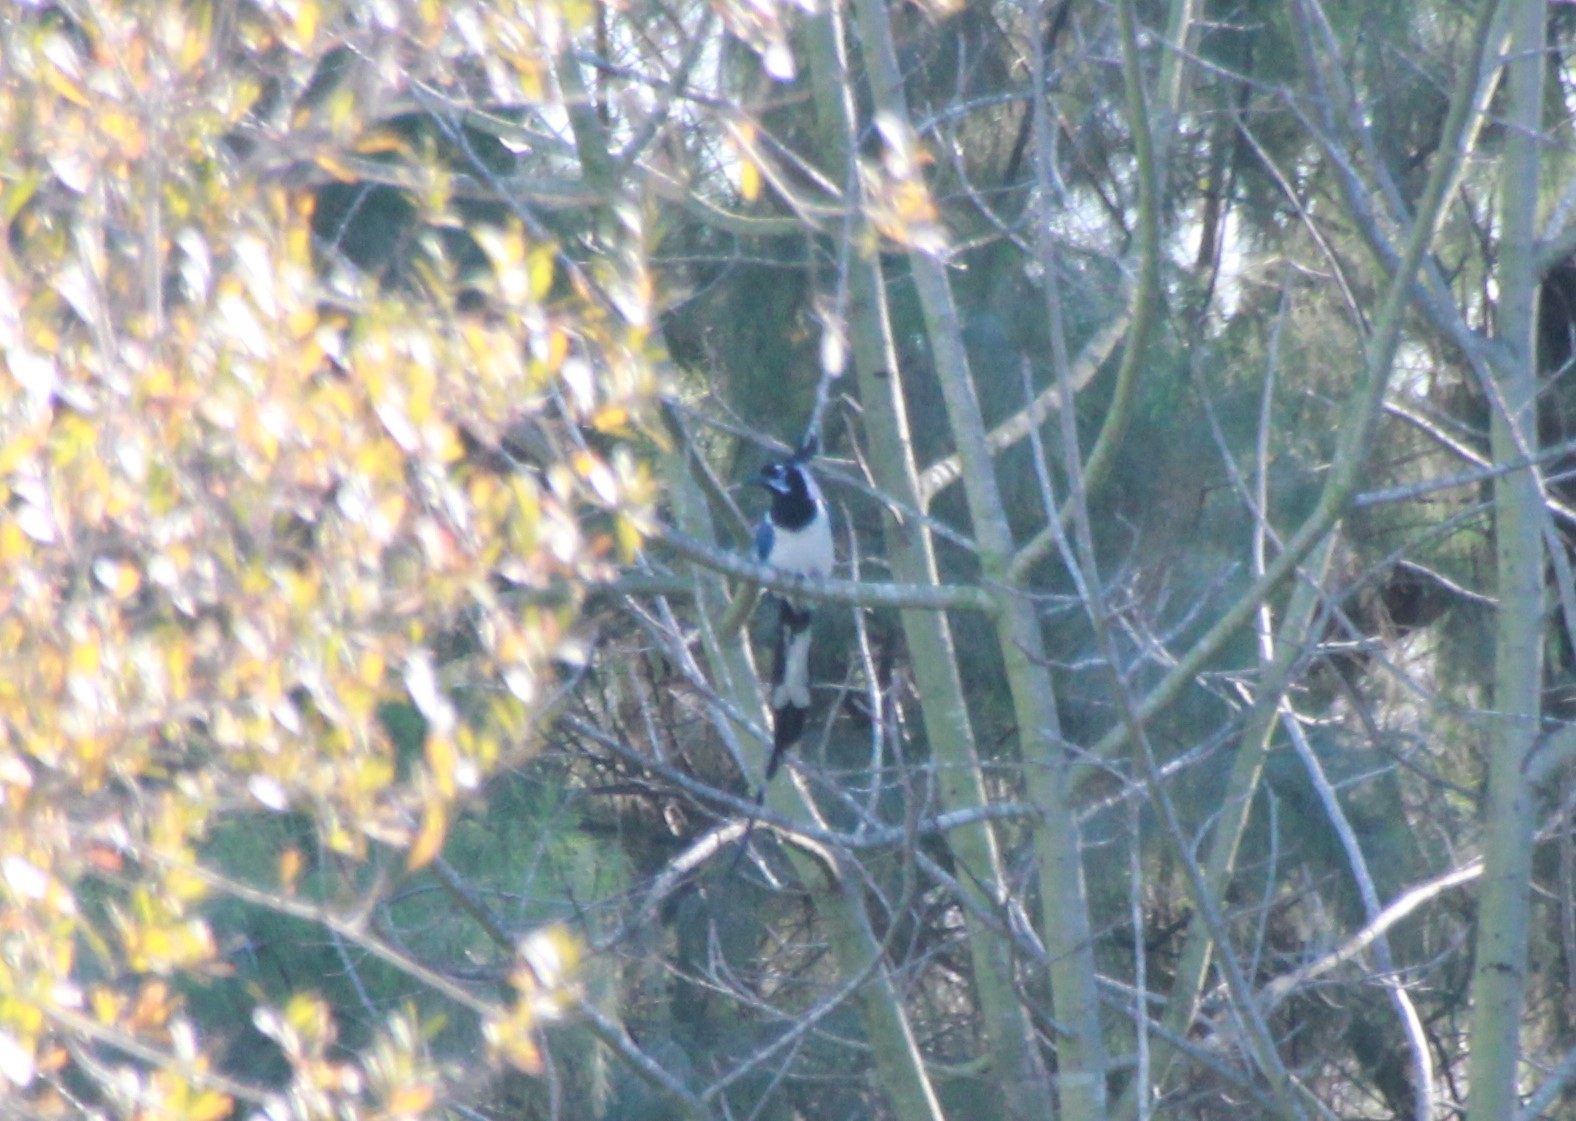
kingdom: Animalia
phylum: Chordata
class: Aves
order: Passeriformes
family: Corvidae
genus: Calocitta
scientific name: Calocitta colliei
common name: Black-throated magpie-jay
